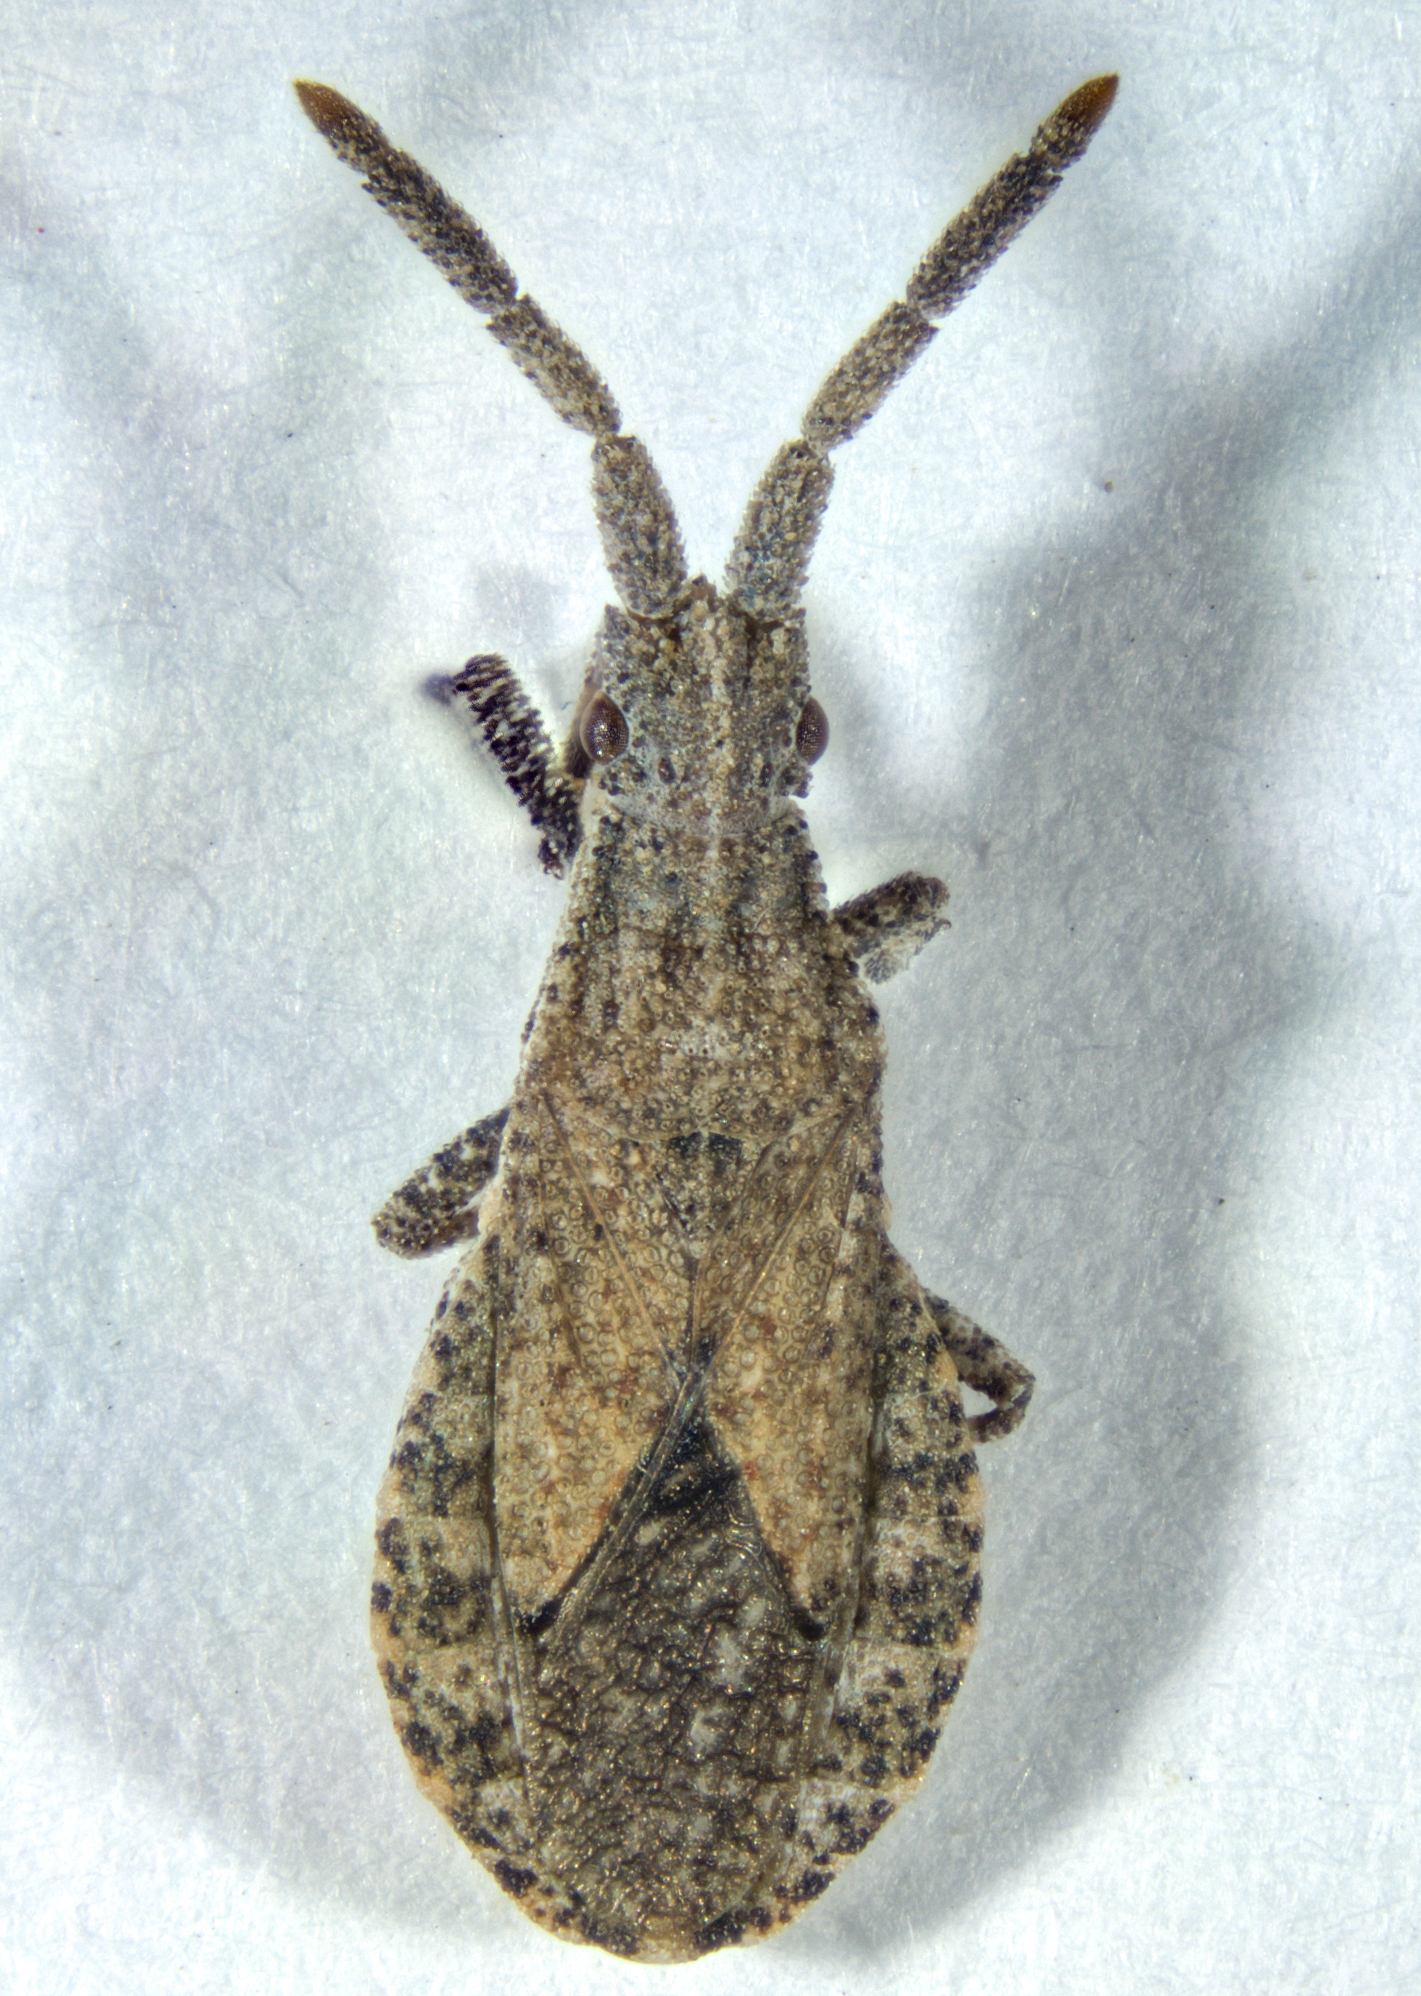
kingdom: Animalia
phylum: Arthropoda
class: Insecta
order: Hemiptera
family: Coreidae
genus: Scolopocerus
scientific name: Scolopocerus secundarius
